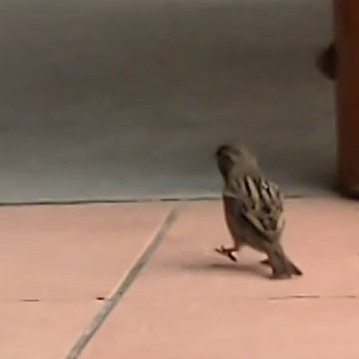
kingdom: Animalia
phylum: Chordata
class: Aves
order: Passeriformes
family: Passeridae
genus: Passer
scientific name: Passer domesticus
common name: House sparrow
